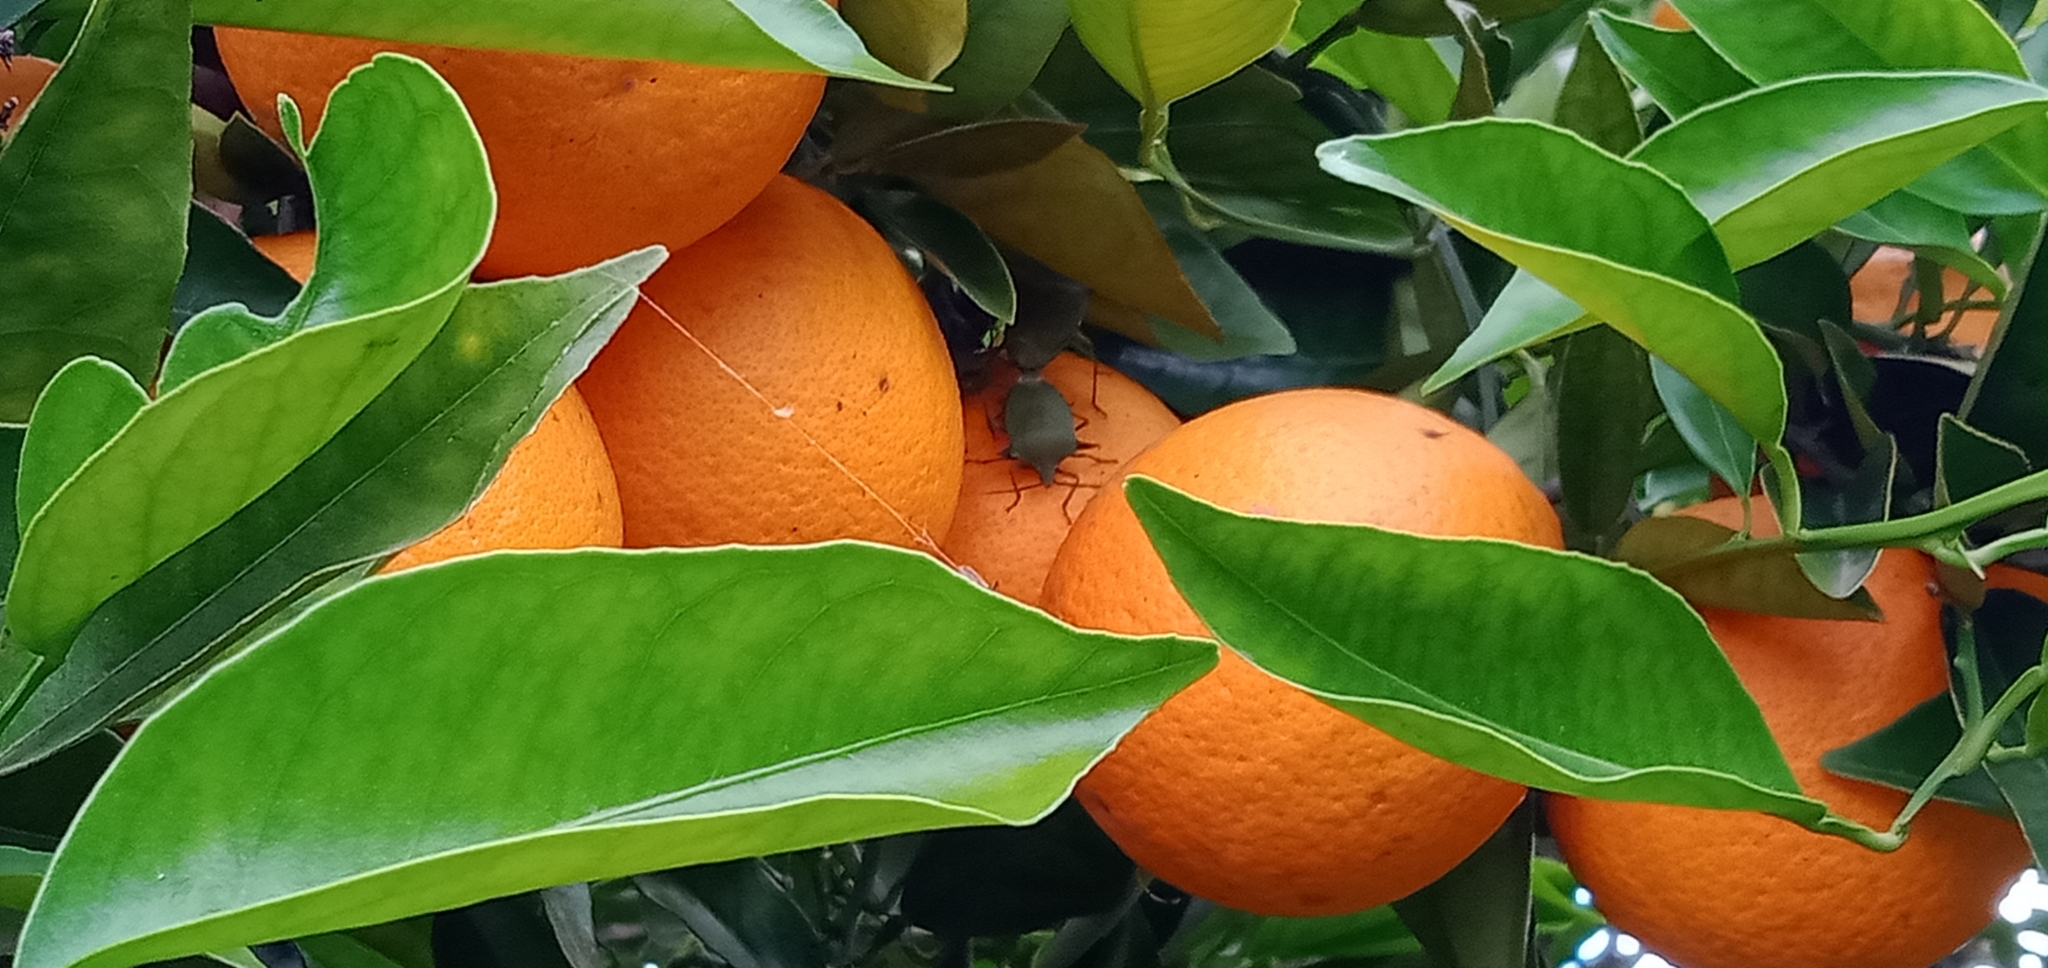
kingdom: Animalia
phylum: Arthropoda
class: Insecta
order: Hemiptera
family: Pentatomidae
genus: Biprorulus
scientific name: Biprorulus
